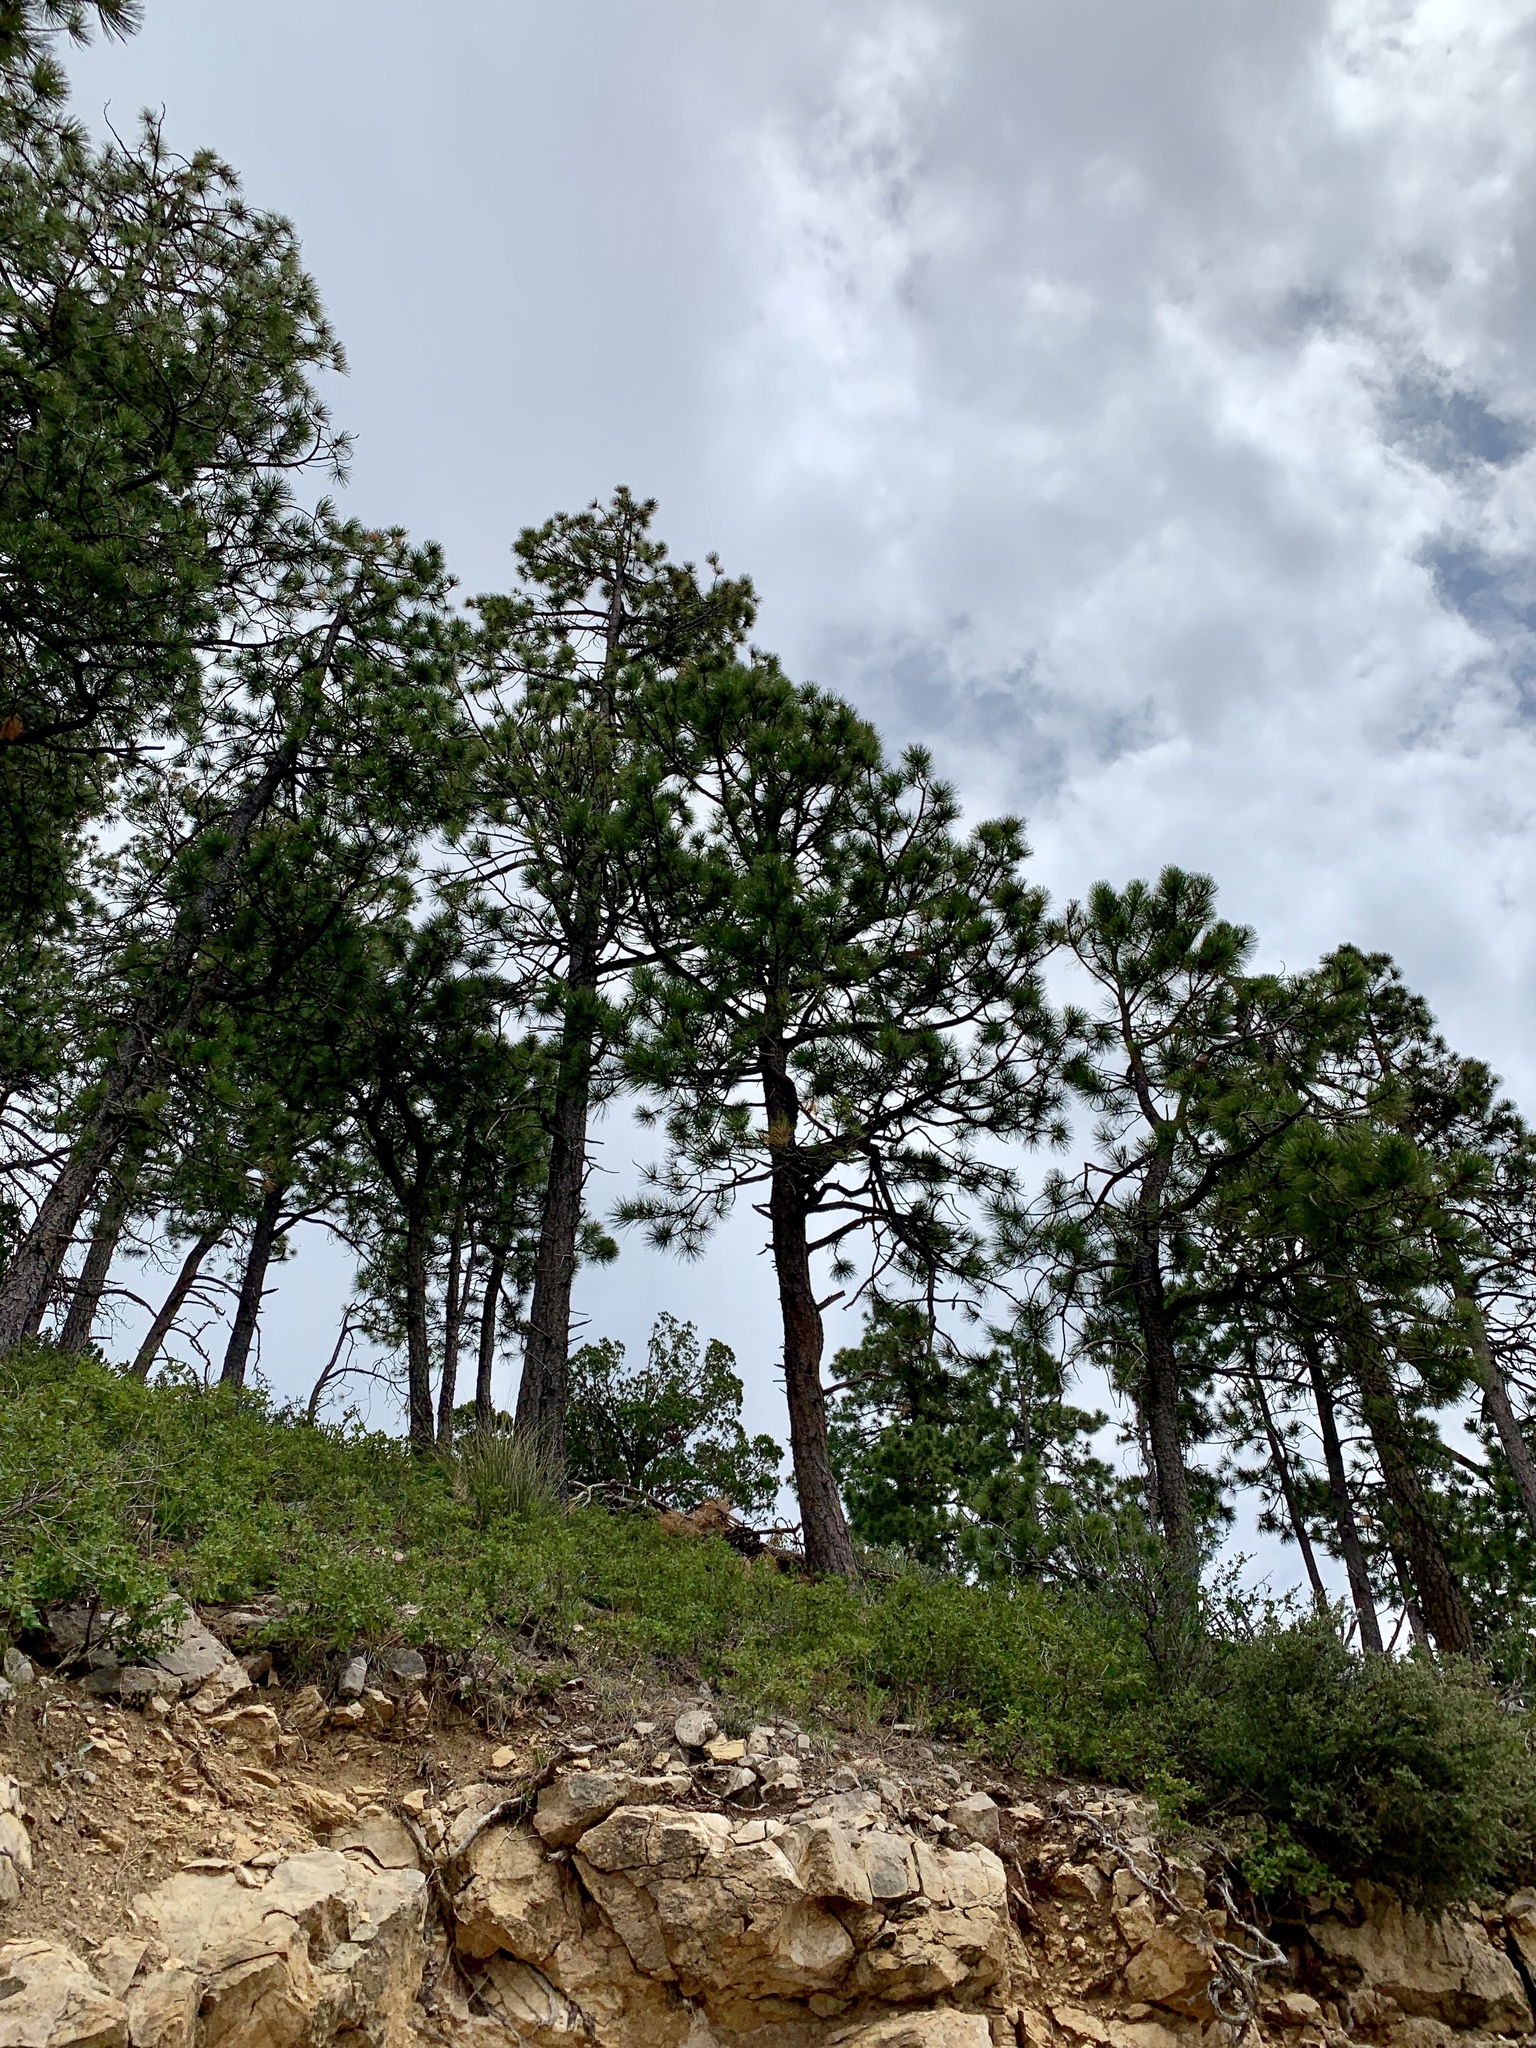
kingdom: Plantae
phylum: Tracheophyta
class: Pinopsida
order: Pinales
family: Pinaceae
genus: Pinus
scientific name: Pinus ponderosa
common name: Western yellow-pine
